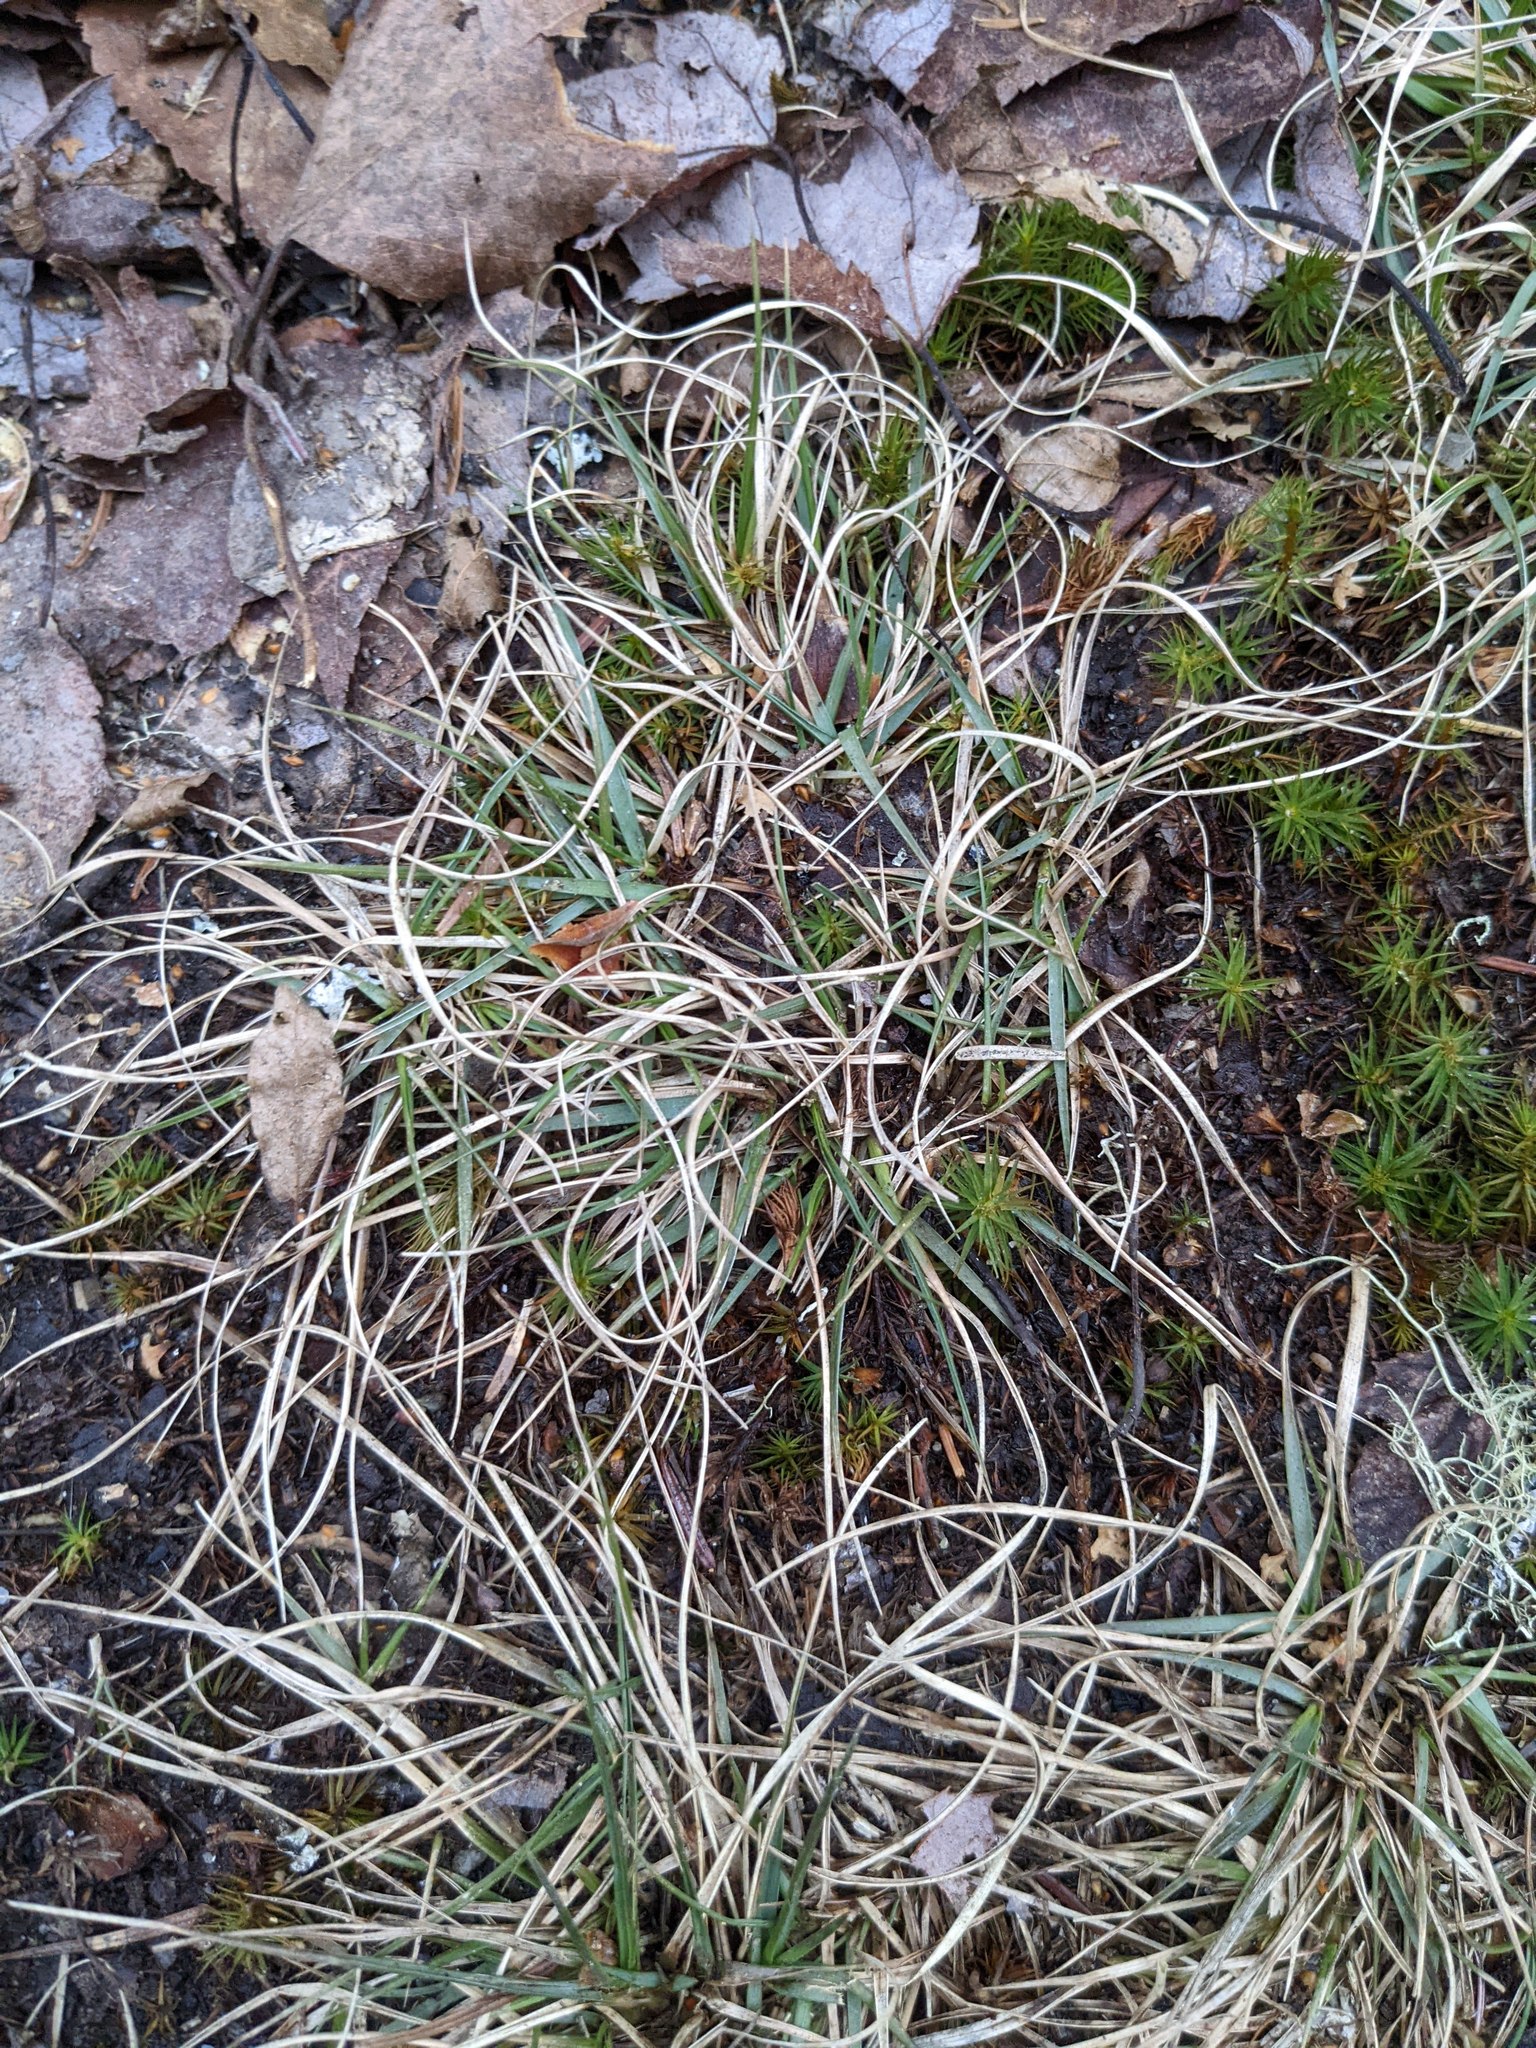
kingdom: Plantae
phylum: Tracheophyta
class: Liliopsida
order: Poales
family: Poaceae
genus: Danthonia
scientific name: Danthonia spicata
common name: Common wild oatgrass
